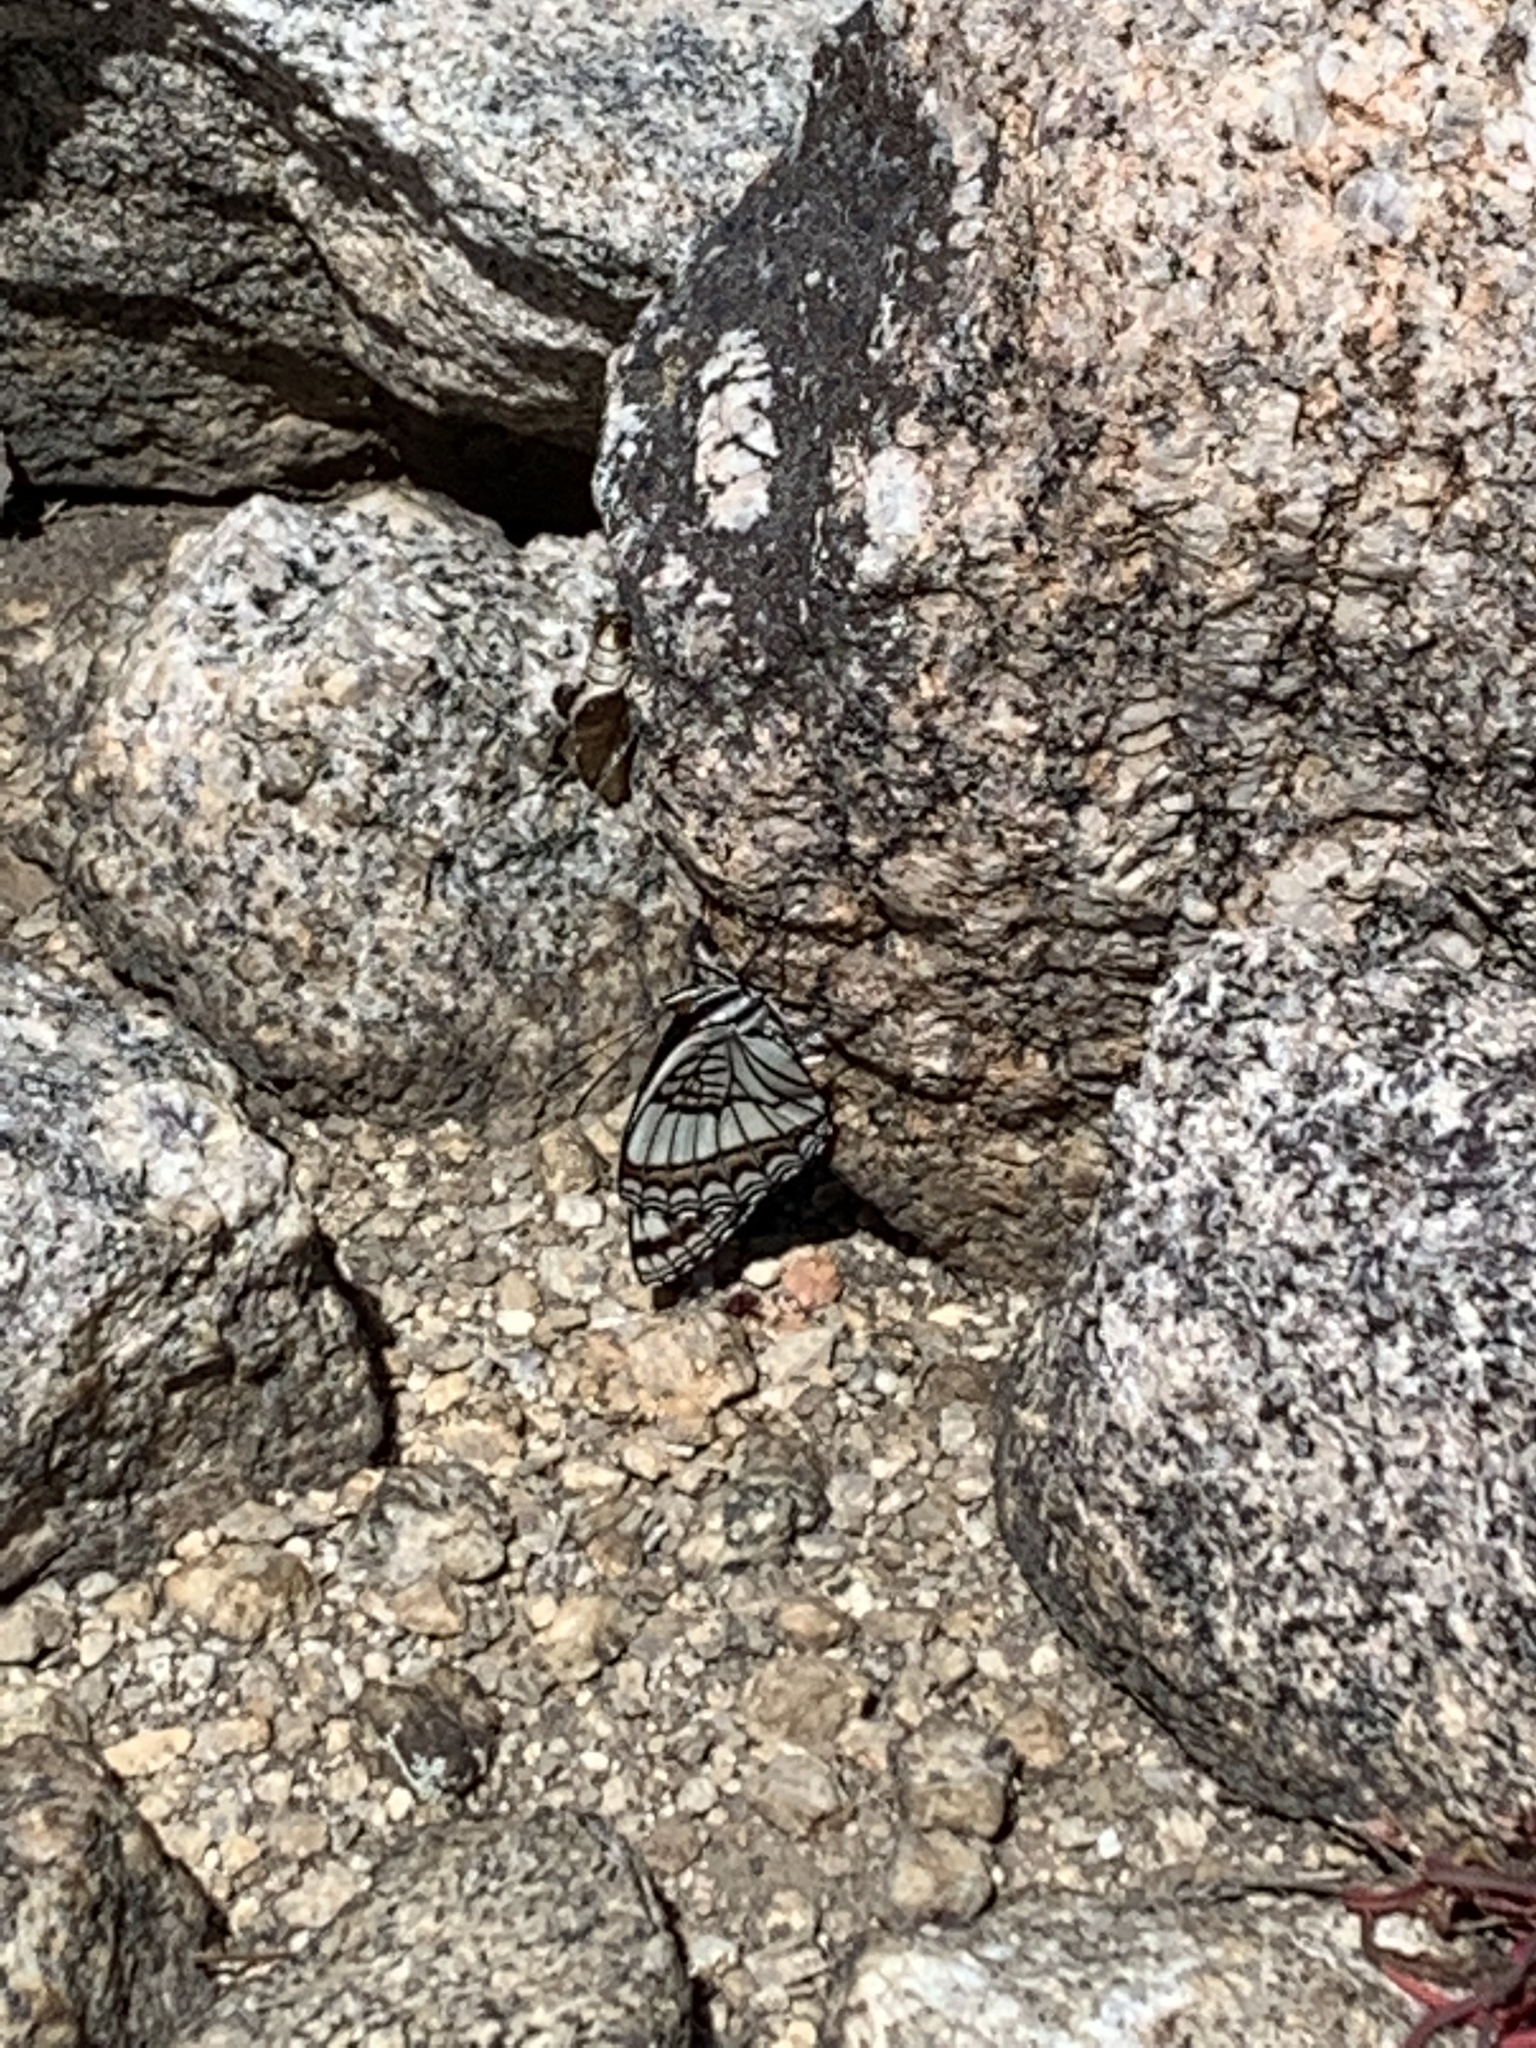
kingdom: Animalia
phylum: Arthropoda
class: Insecta
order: Lepidoptera
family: Nymphalidae
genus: Limenitis
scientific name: Limenitis weidemeyerii
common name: Weidemeyer's admiral
